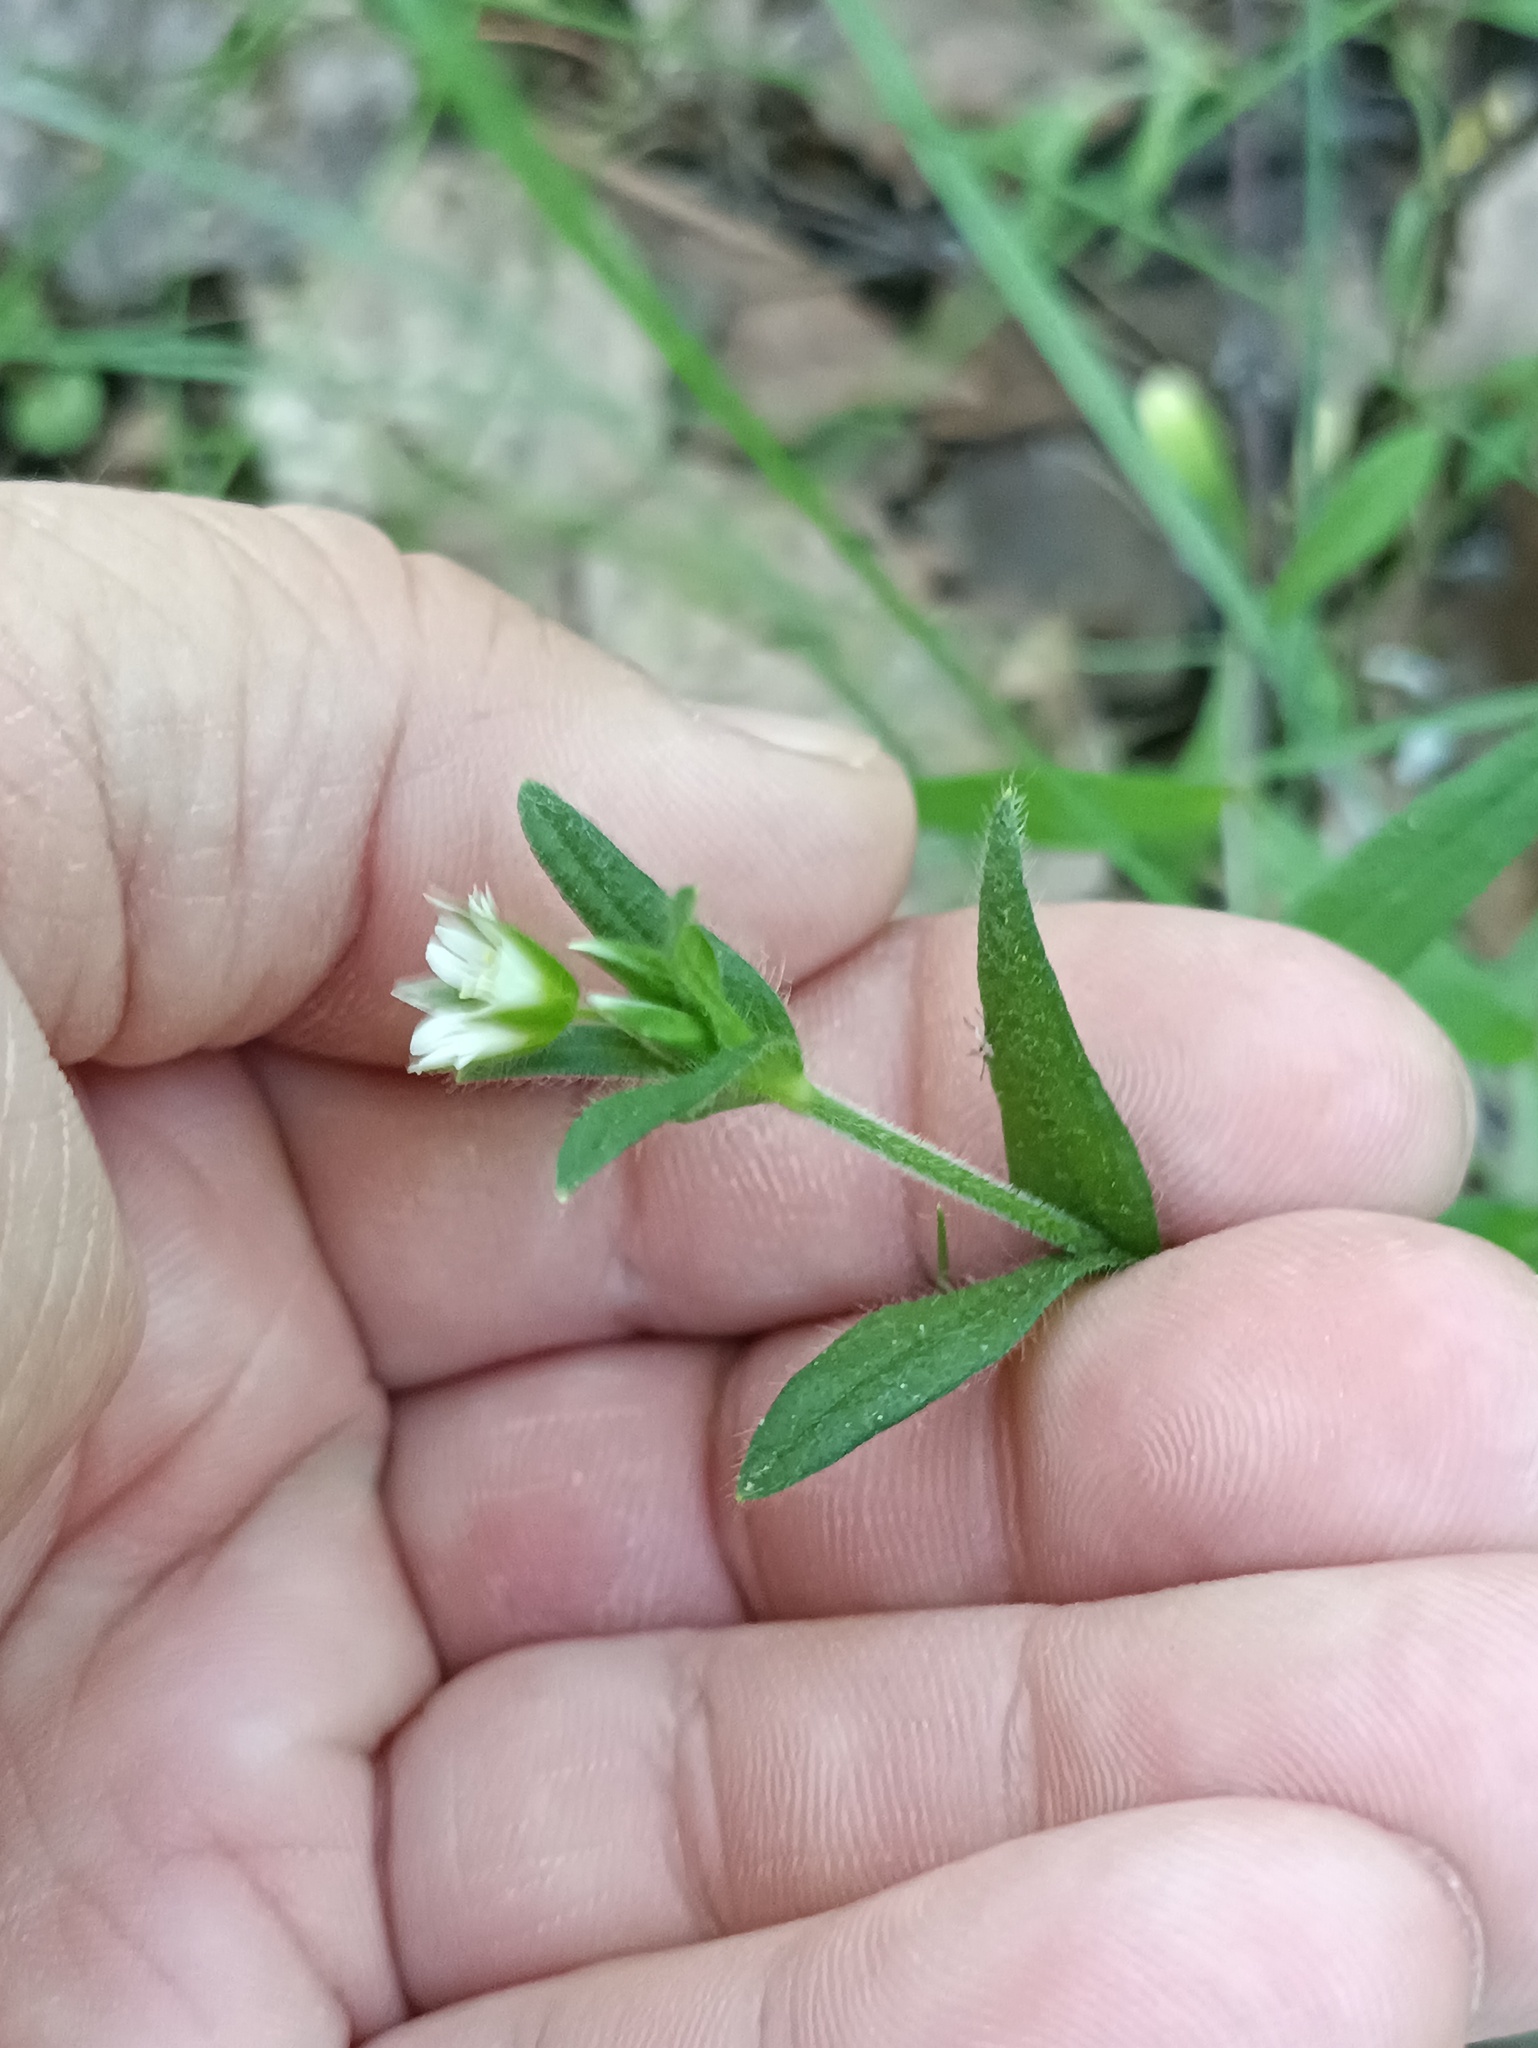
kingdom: Plantae
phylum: Tracheophyta
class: Magnoliopsida
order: Caryophyllales
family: Caryophyllaceae
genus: Cerastium
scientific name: Cerastium holosteoides
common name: Big chickweed
